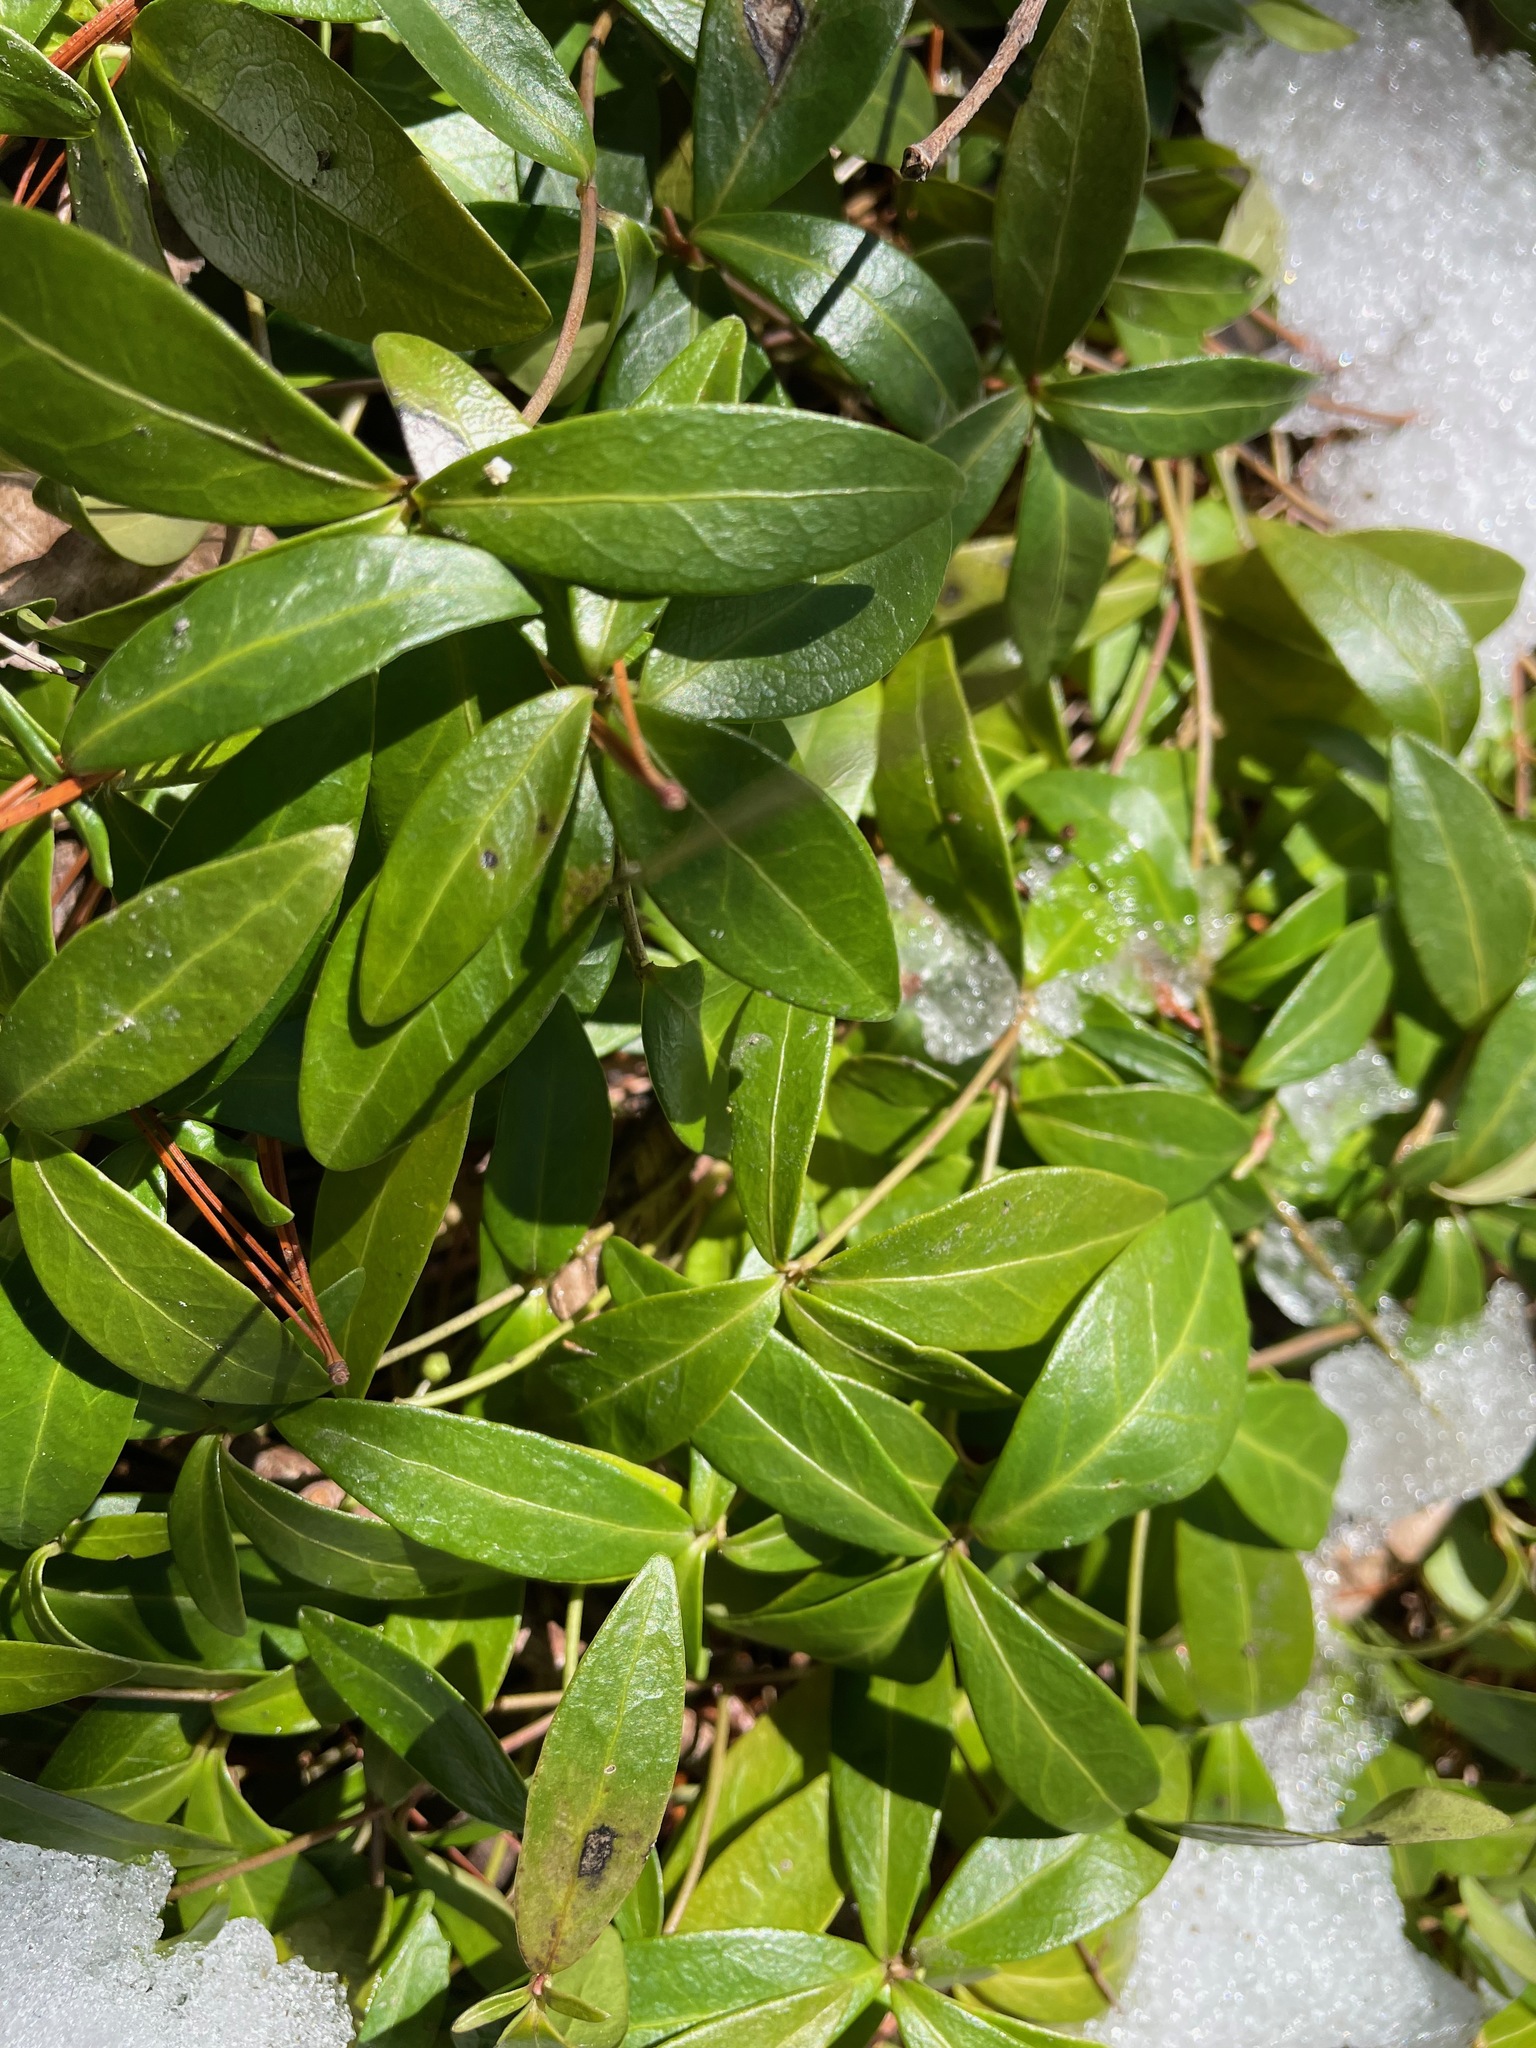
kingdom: Plantae
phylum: Tracheophyta
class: Magnoliopsida
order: Gentianales
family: Apocynaceae
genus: Vinca
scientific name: Vinca minor
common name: Lesser periwinkle
